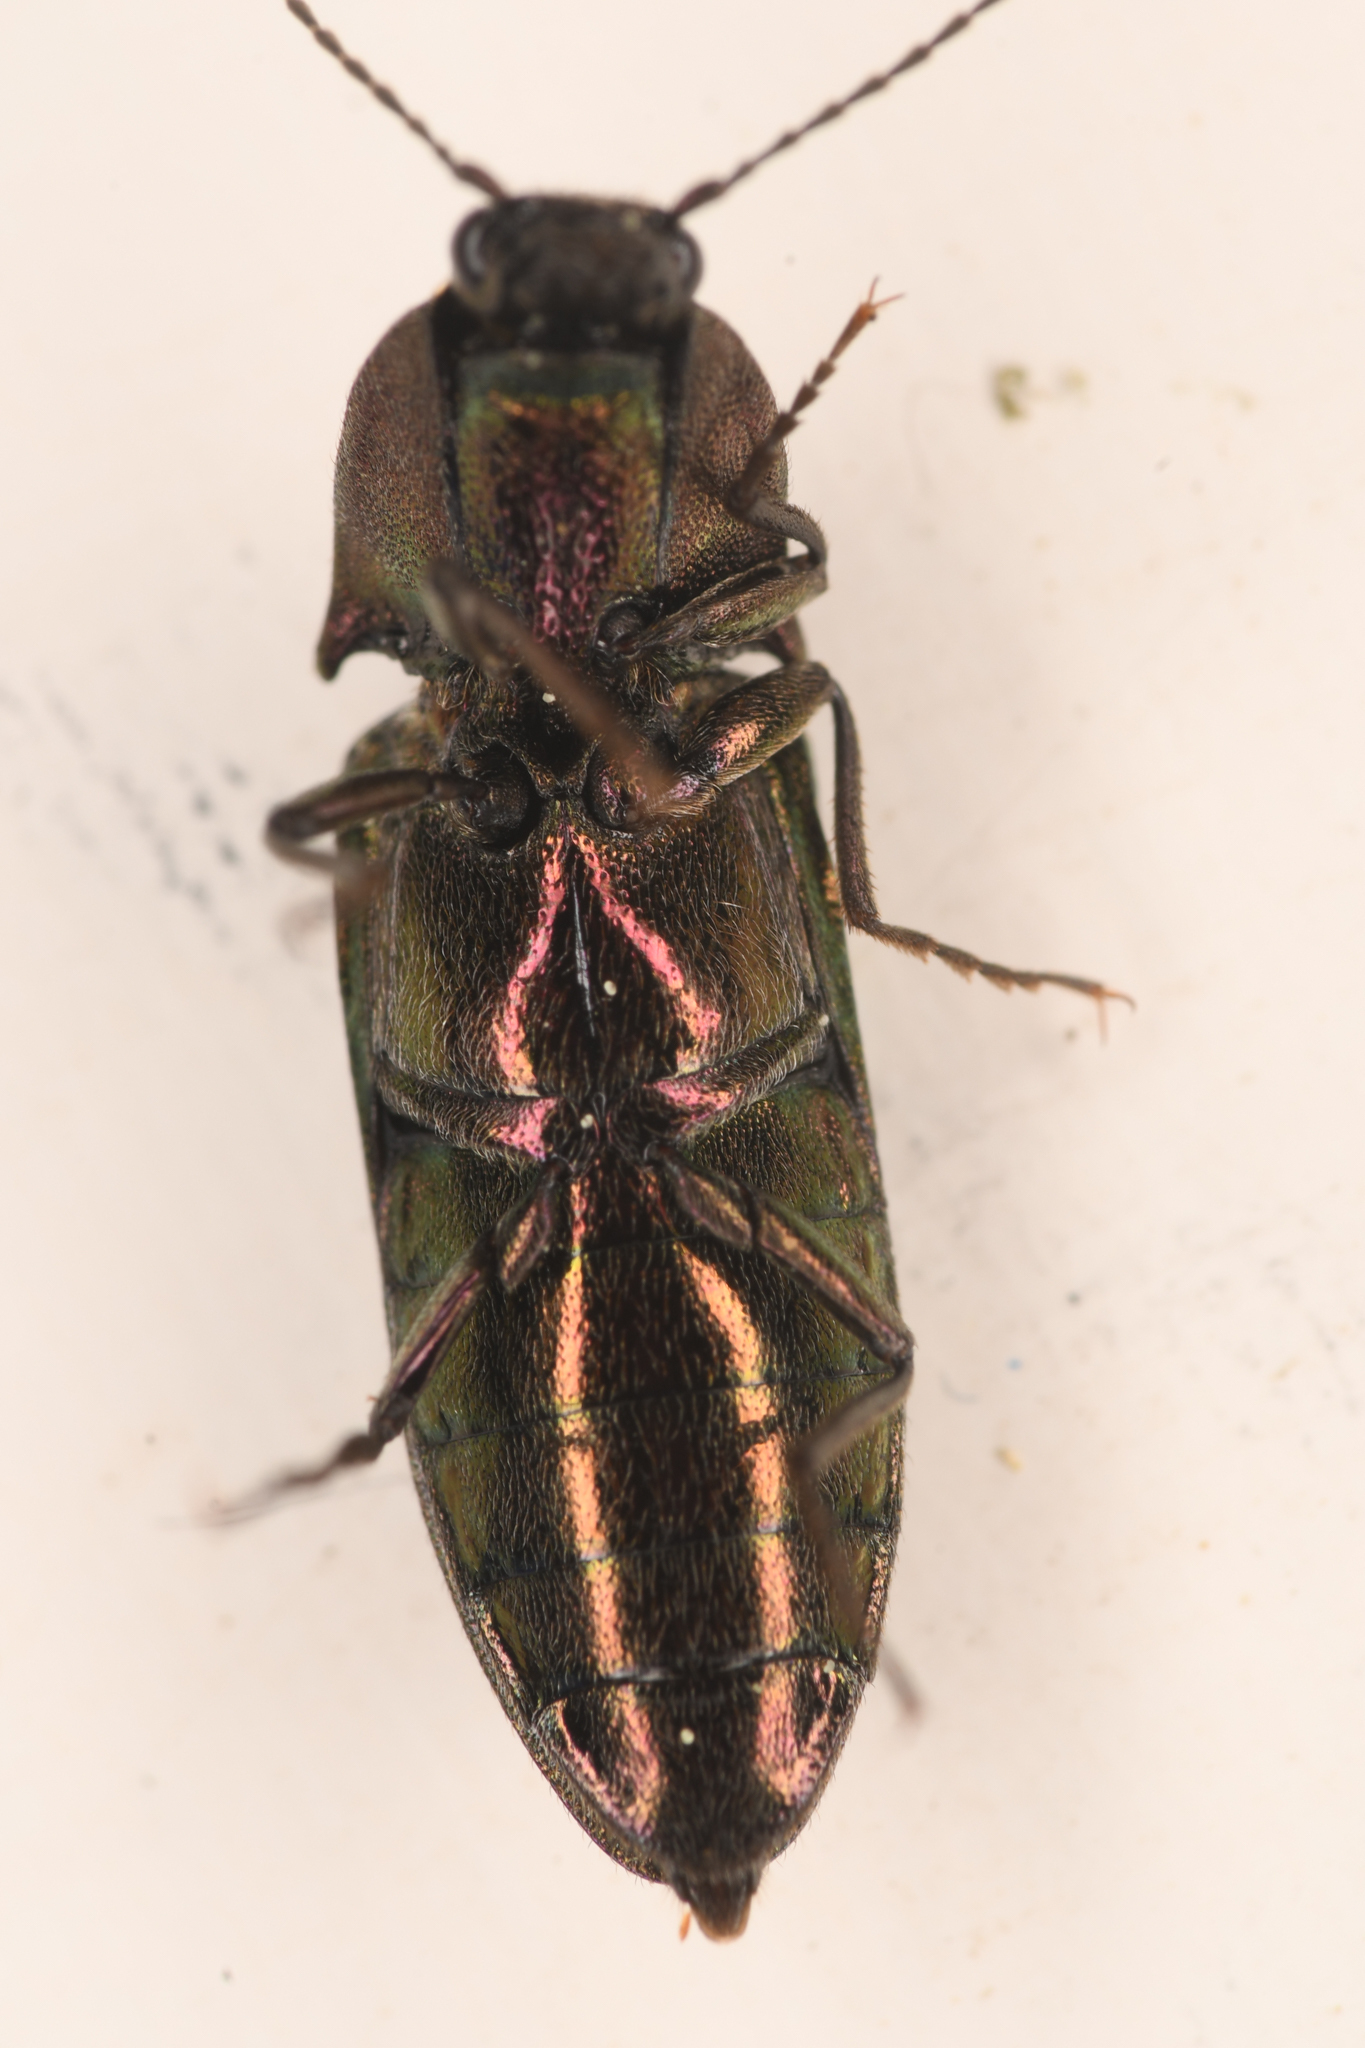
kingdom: Animalia
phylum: Arthropoda
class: Insecta
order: Coleoptera
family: Elateridae
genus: Nitidolimonius
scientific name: Nitidolimonius resplendens
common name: Resplendent click beetle
